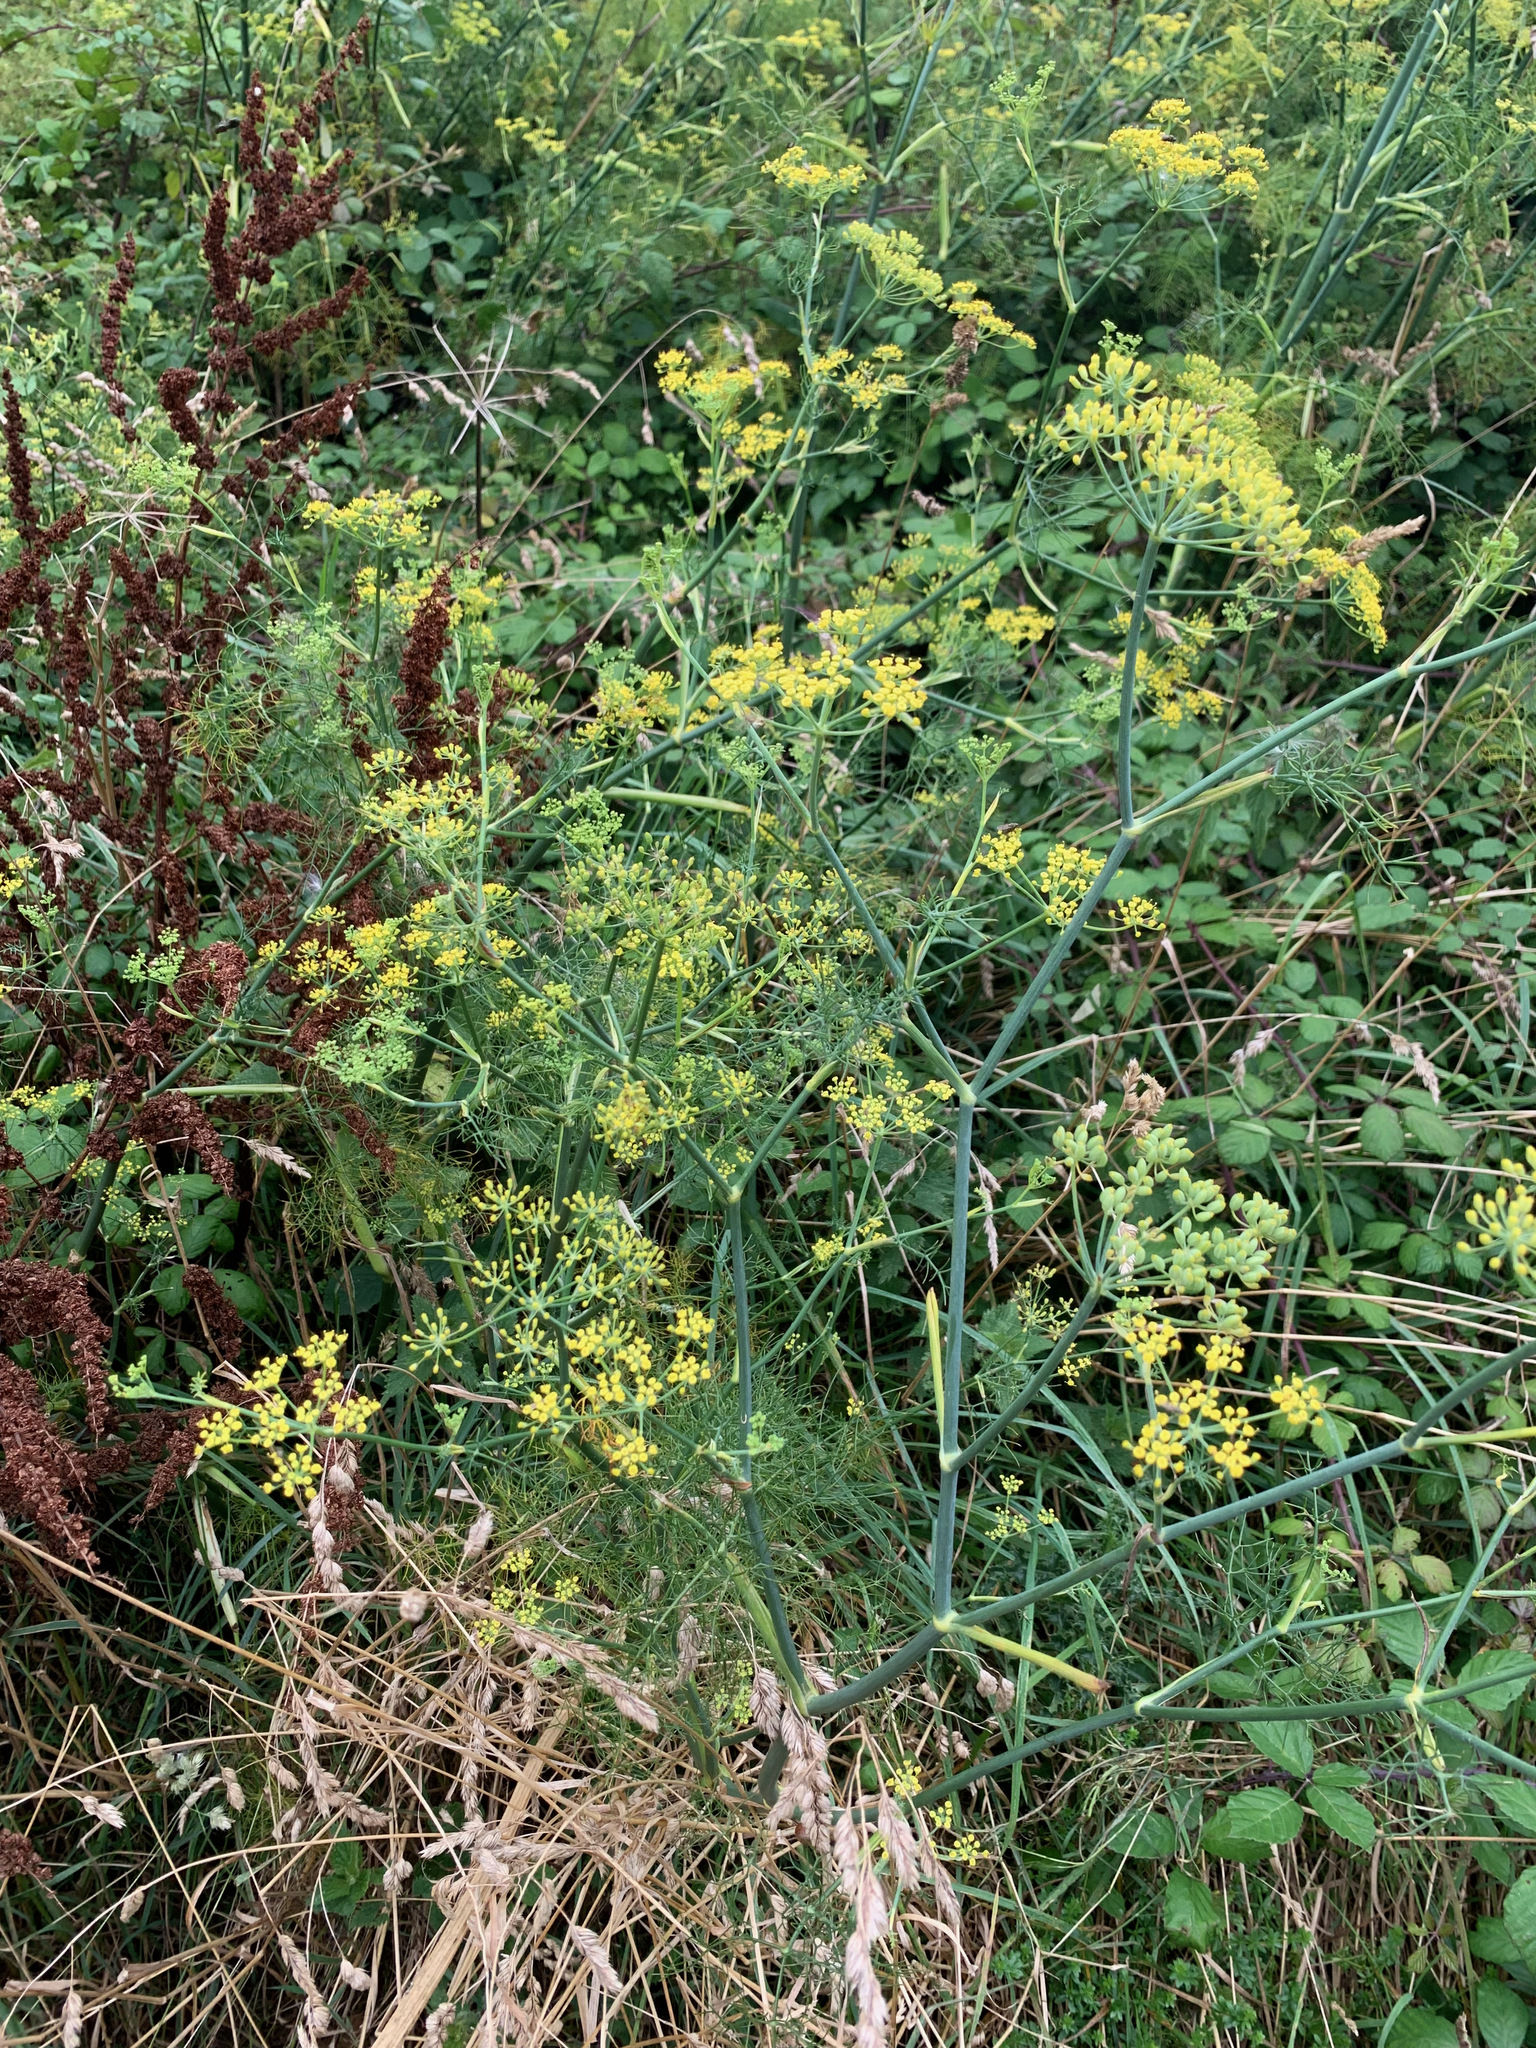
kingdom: Plantae
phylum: Tracheophyta
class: Magnoliopsida
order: Apiales
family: Apiaceae
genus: Foeniculum
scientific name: Foeniculum vulgare
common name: Fennel
